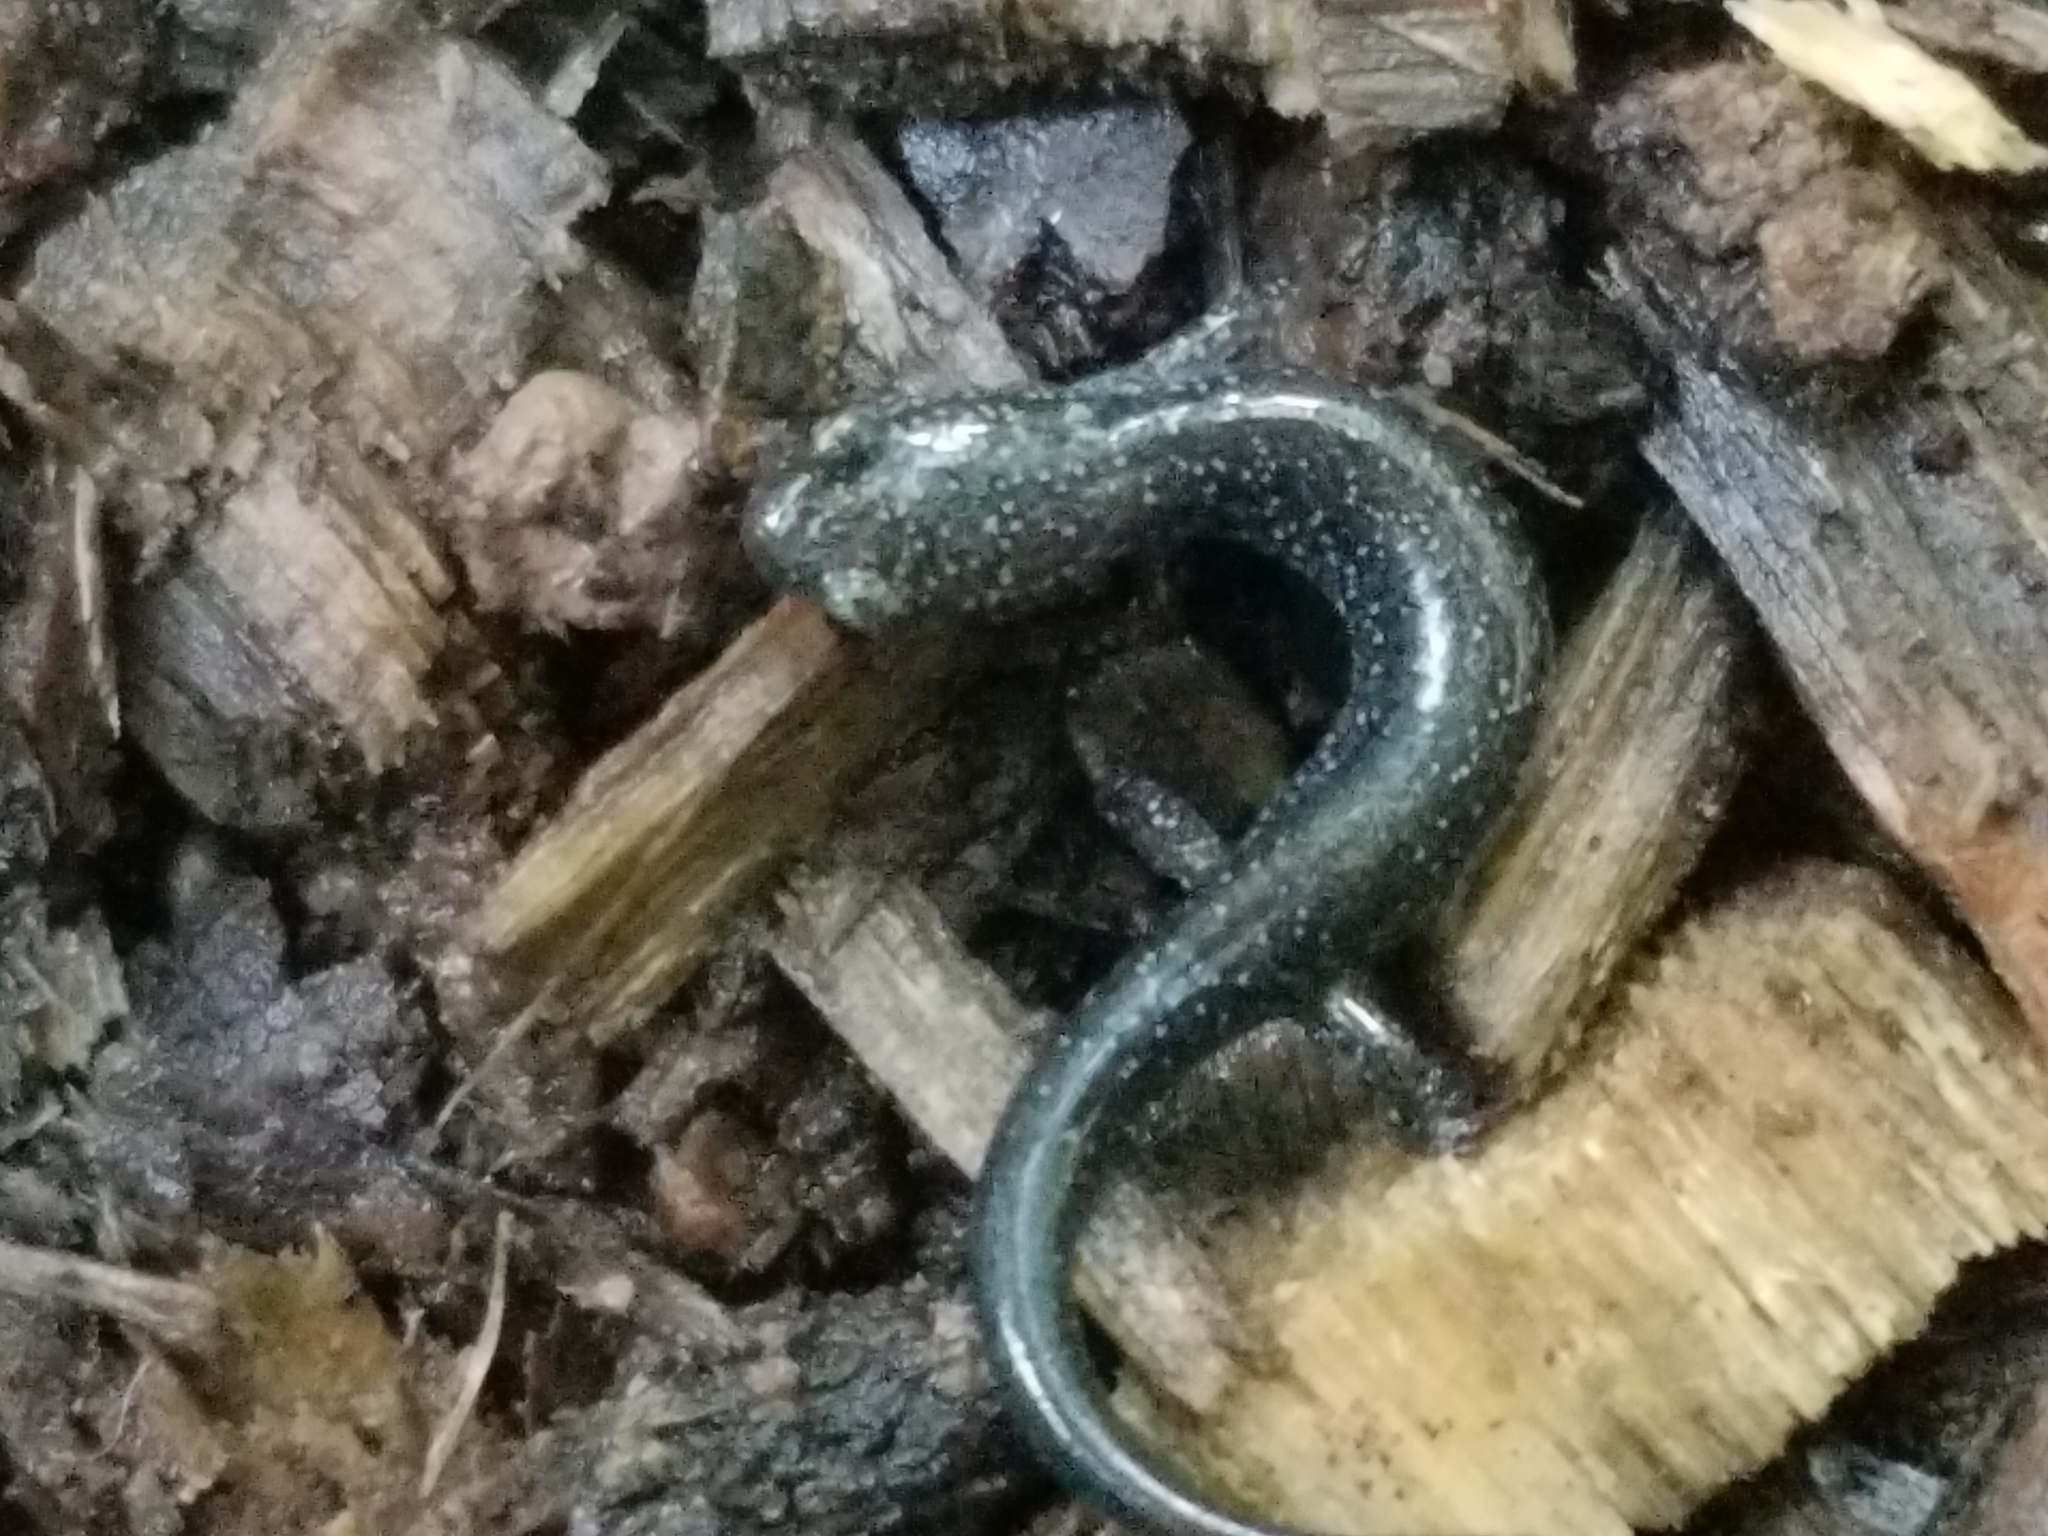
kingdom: Animalia
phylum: Chordata
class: Amphibia
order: Caudata
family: Plethodontidae
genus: Plethodon
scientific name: Plethodon cinereus
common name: Redback salamander
